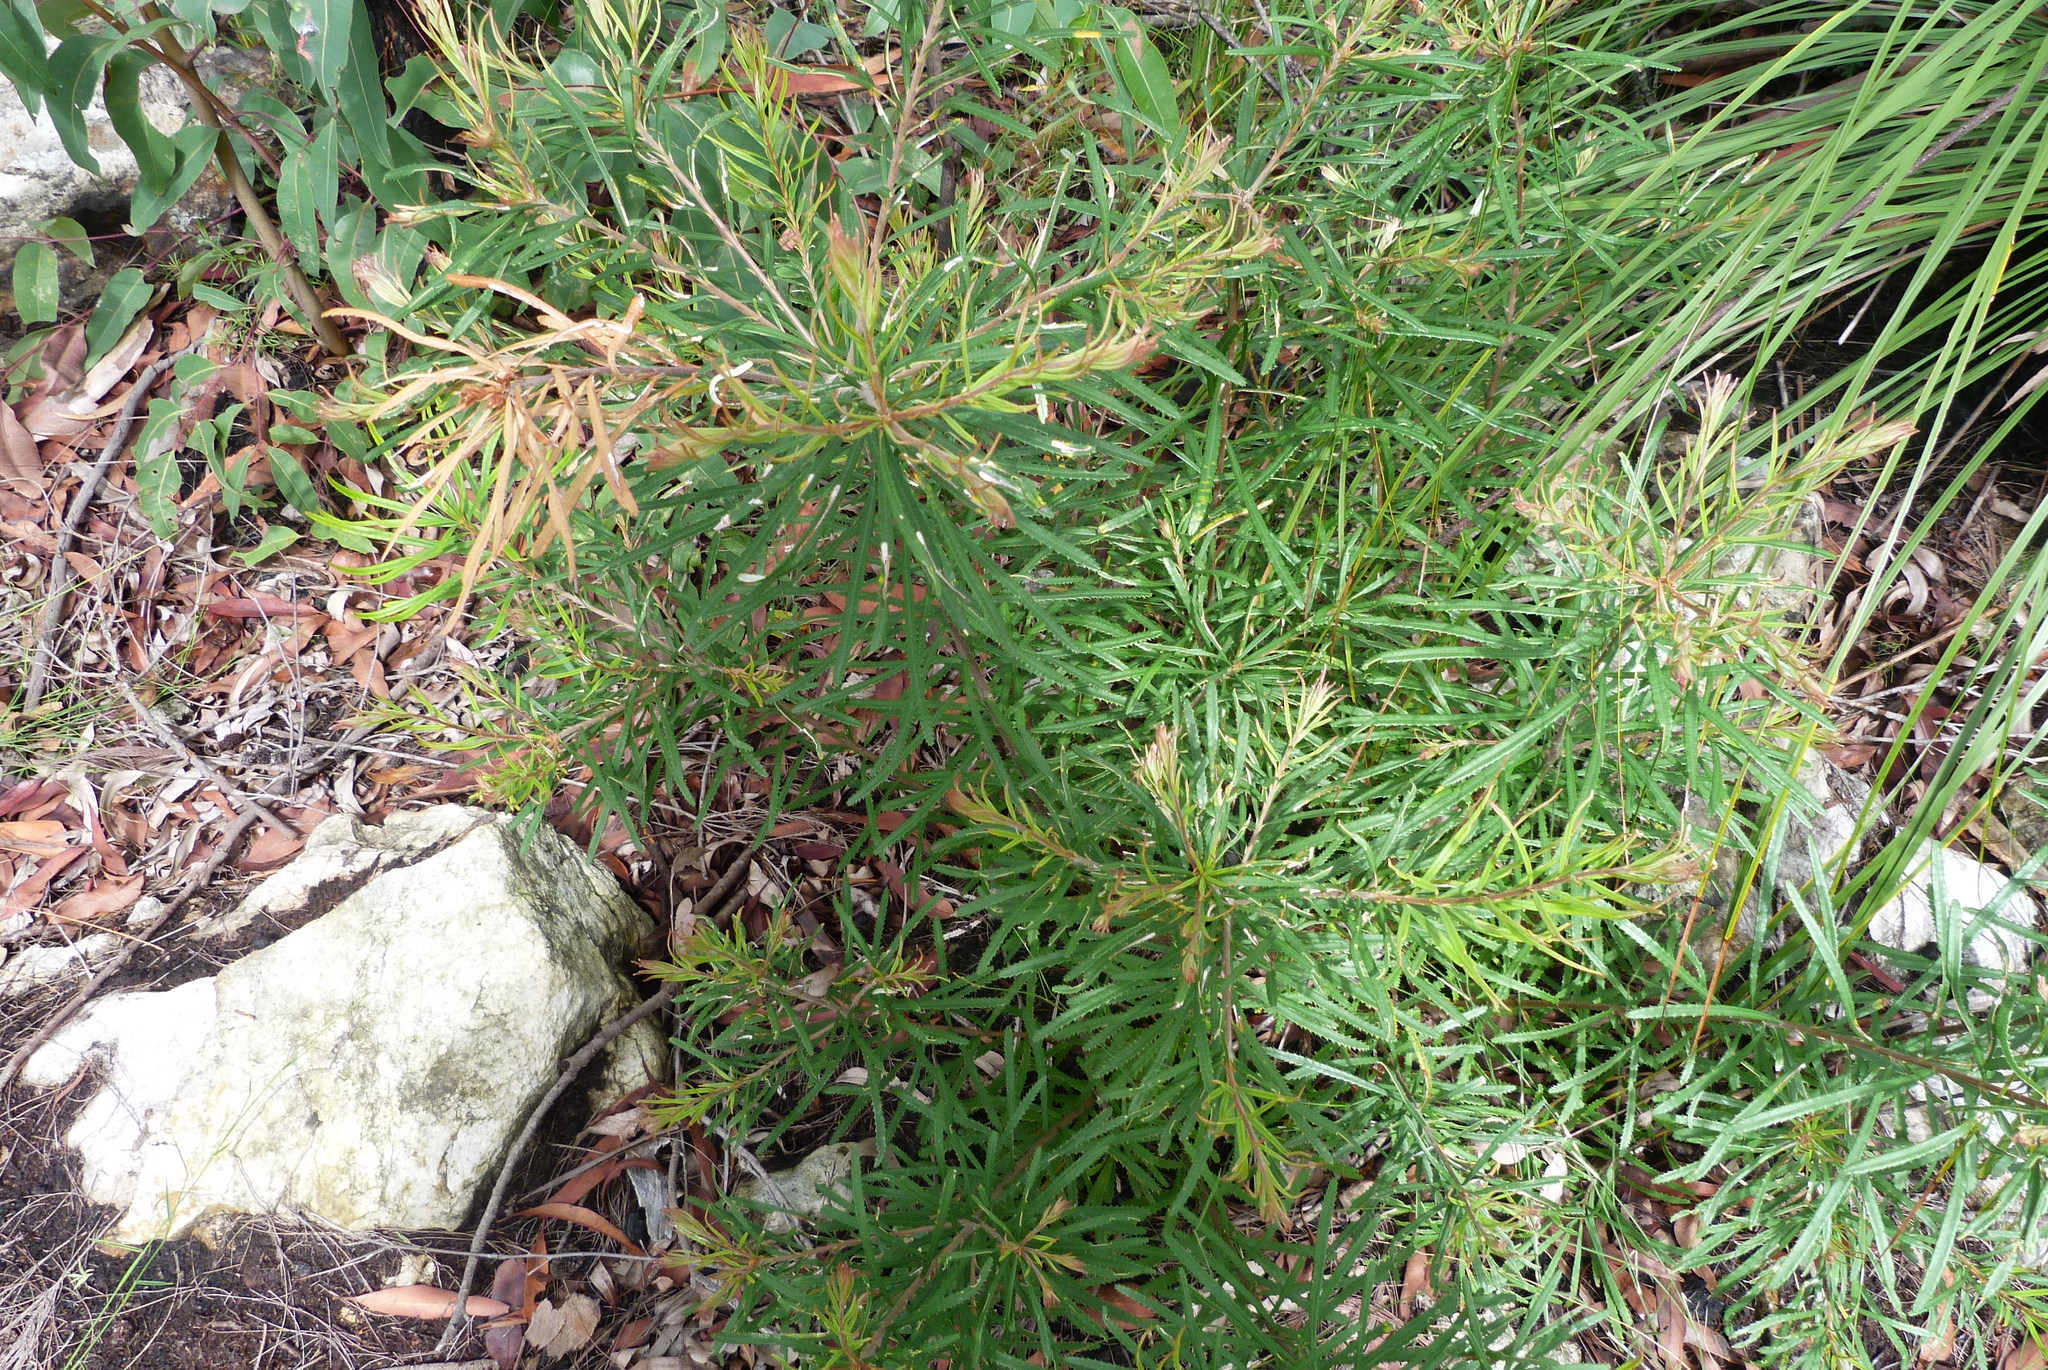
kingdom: Plantae
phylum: Tracheophyta
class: Magnoliopsida
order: Proteales
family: Proteaceae
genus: Banksia
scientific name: Banksia spinulosa
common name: Hairpin banksia
